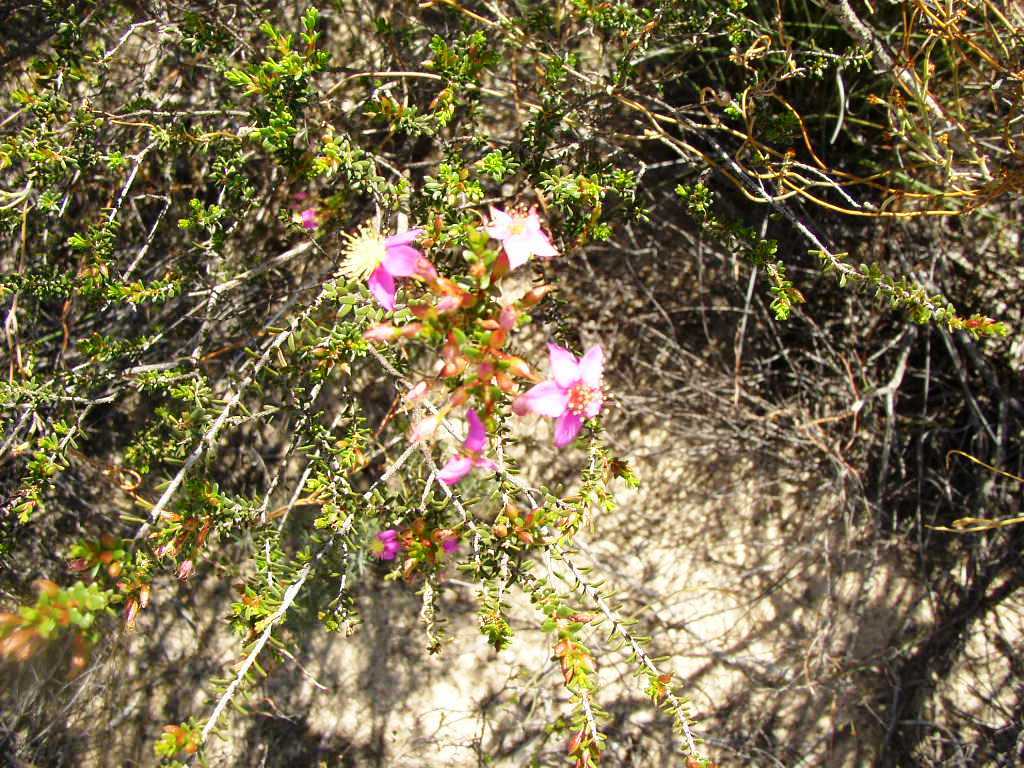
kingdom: Plantae
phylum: Tracheophyta
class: Magnoliopsida
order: Myrtales
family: Myrtaceae
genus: Calytrix
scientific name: Calytrix brevifolia
